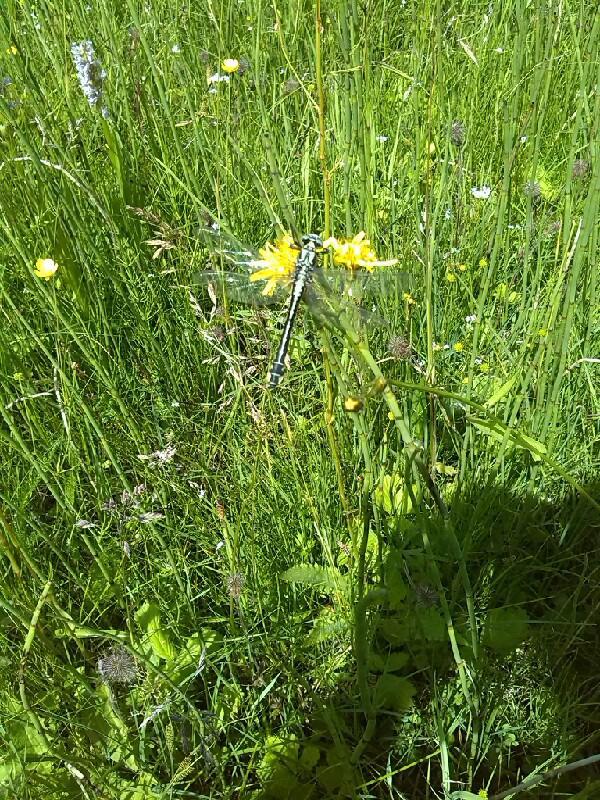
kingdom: Animalia
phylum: Arthropoda
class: Insecta
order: Odonata
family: Gomphidae
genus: Gomphus
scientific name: Gomphus vulgatissimus
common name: Club-tailed dragonfly
